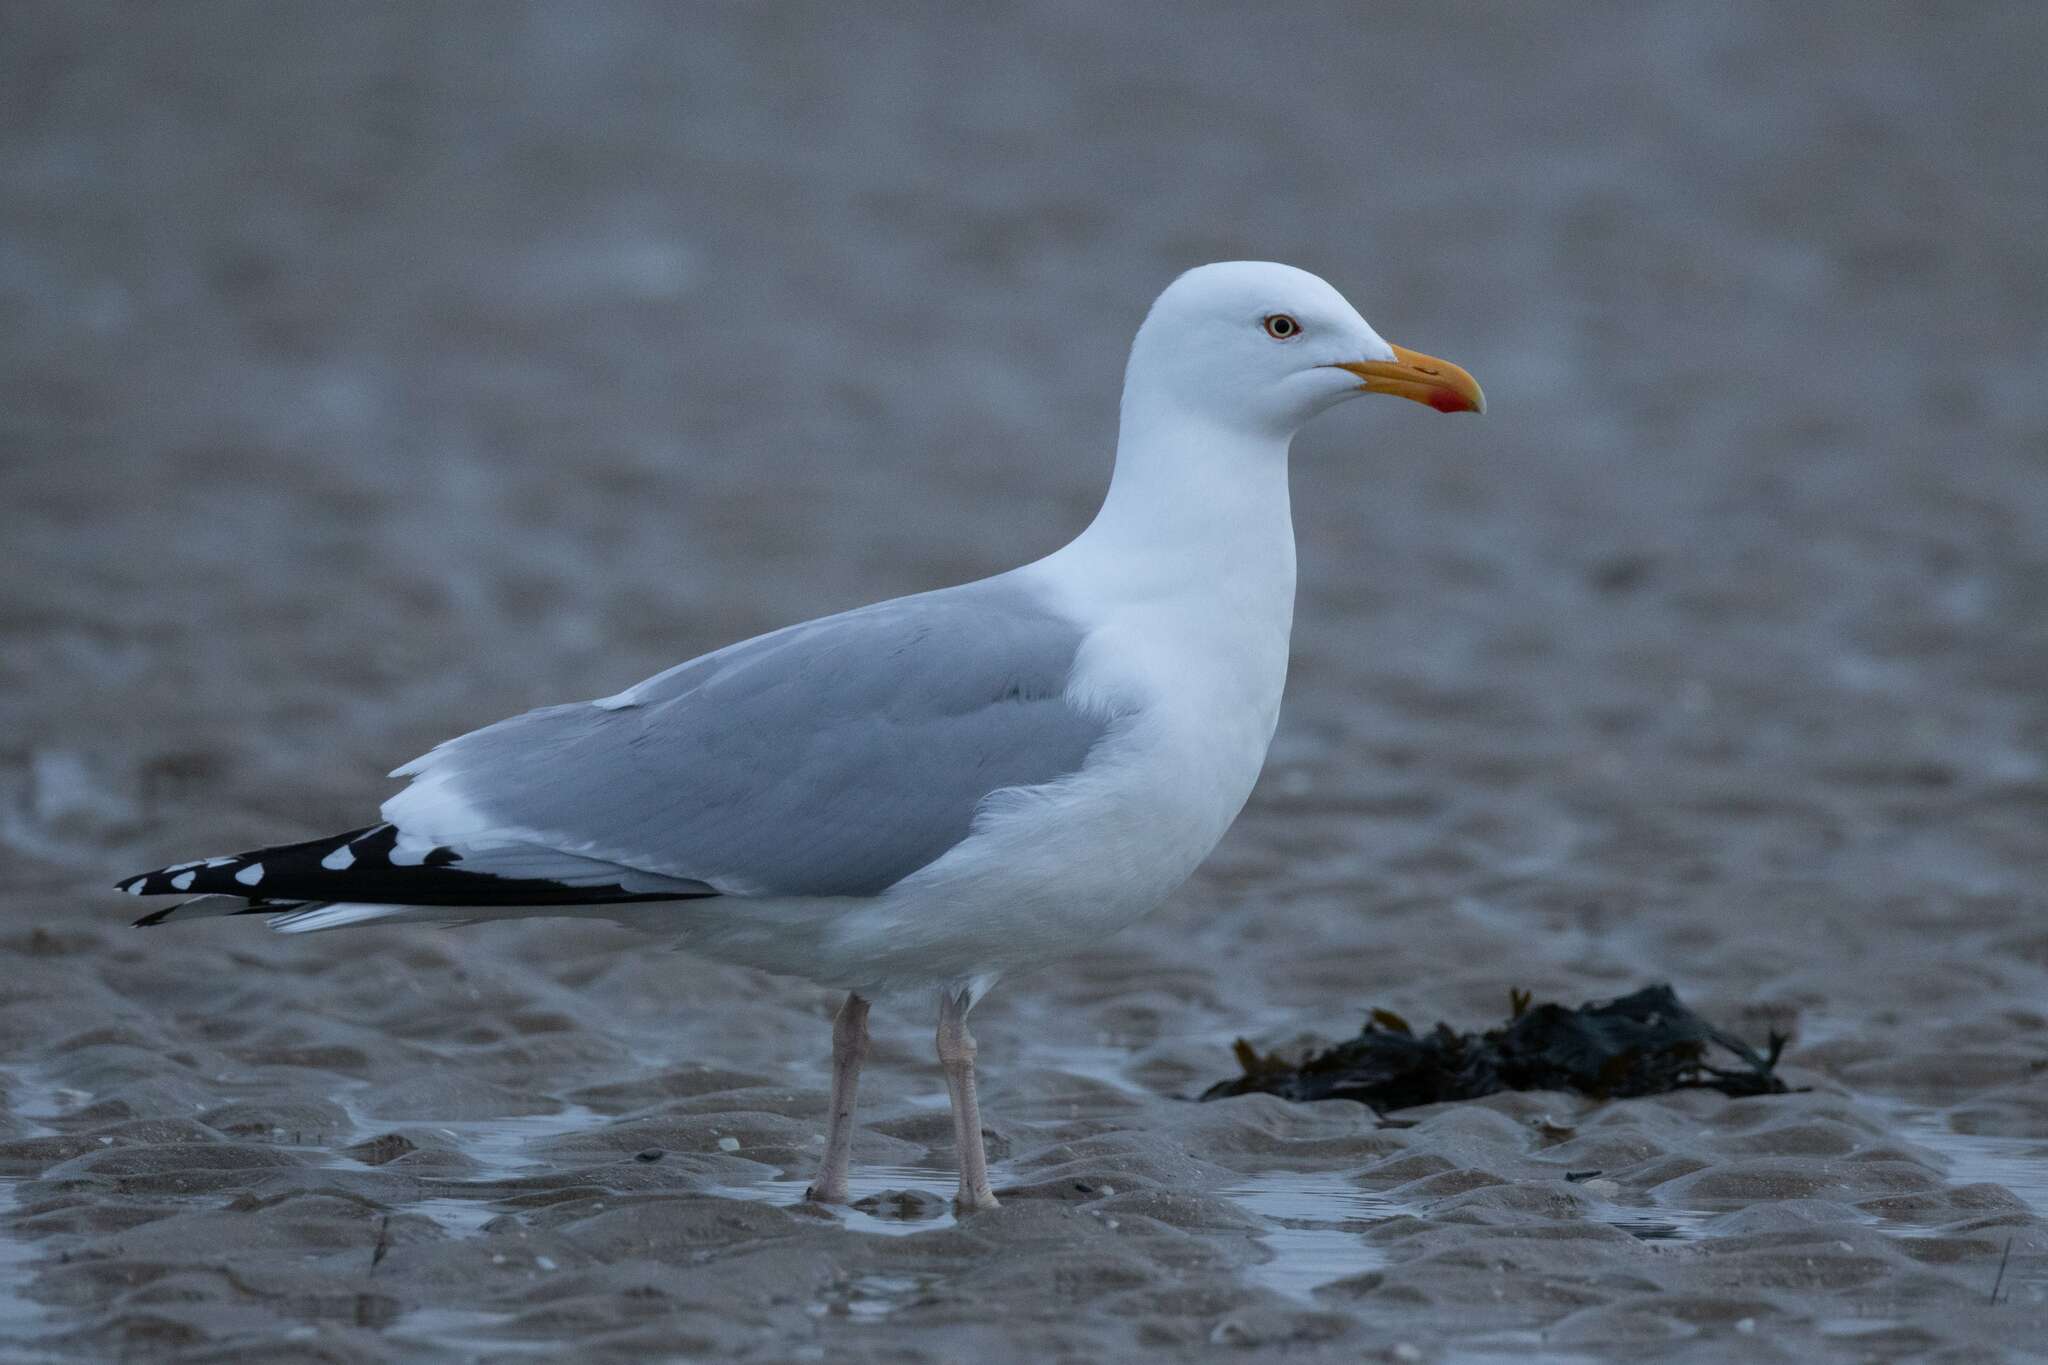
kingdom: Animalia
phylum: Chordata
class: Aves
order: Charadriiformes
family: Laridae
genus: Larus
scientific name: Larus argentatus
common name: Herring gull
